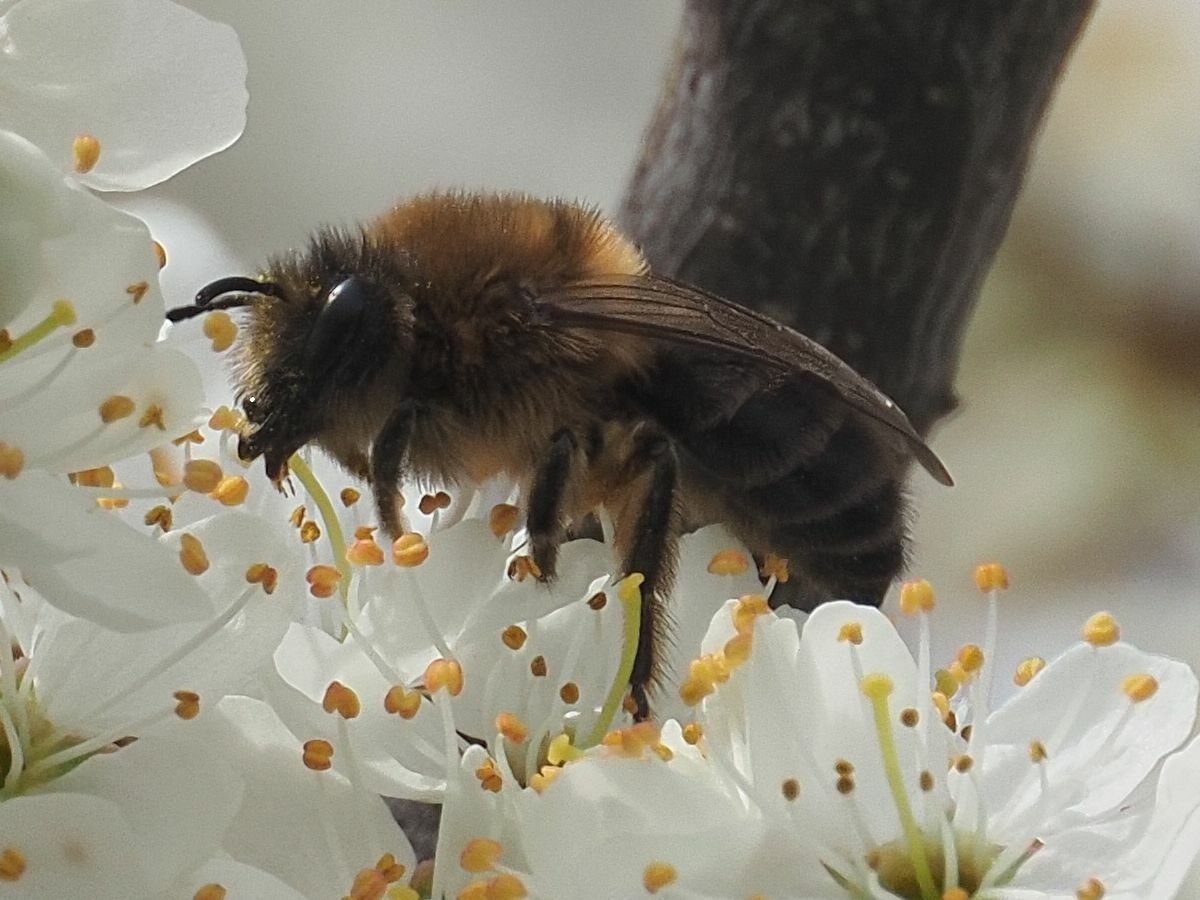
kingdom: Animalia
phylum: Arthropoda
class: Insecta
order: Hymenoptera
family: Colletidae
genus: Colletes
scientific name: Colletes cunicularius
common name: Early colletes
